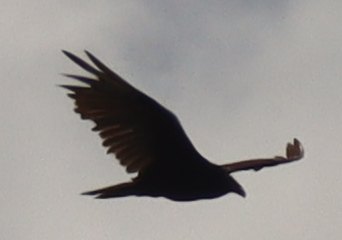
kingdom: Animalia
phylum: Chordata
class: Aves
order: Accipitriformes
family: Cathartidae
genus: Cathartes
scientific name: Cathartes aura
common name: Turkey vulture
